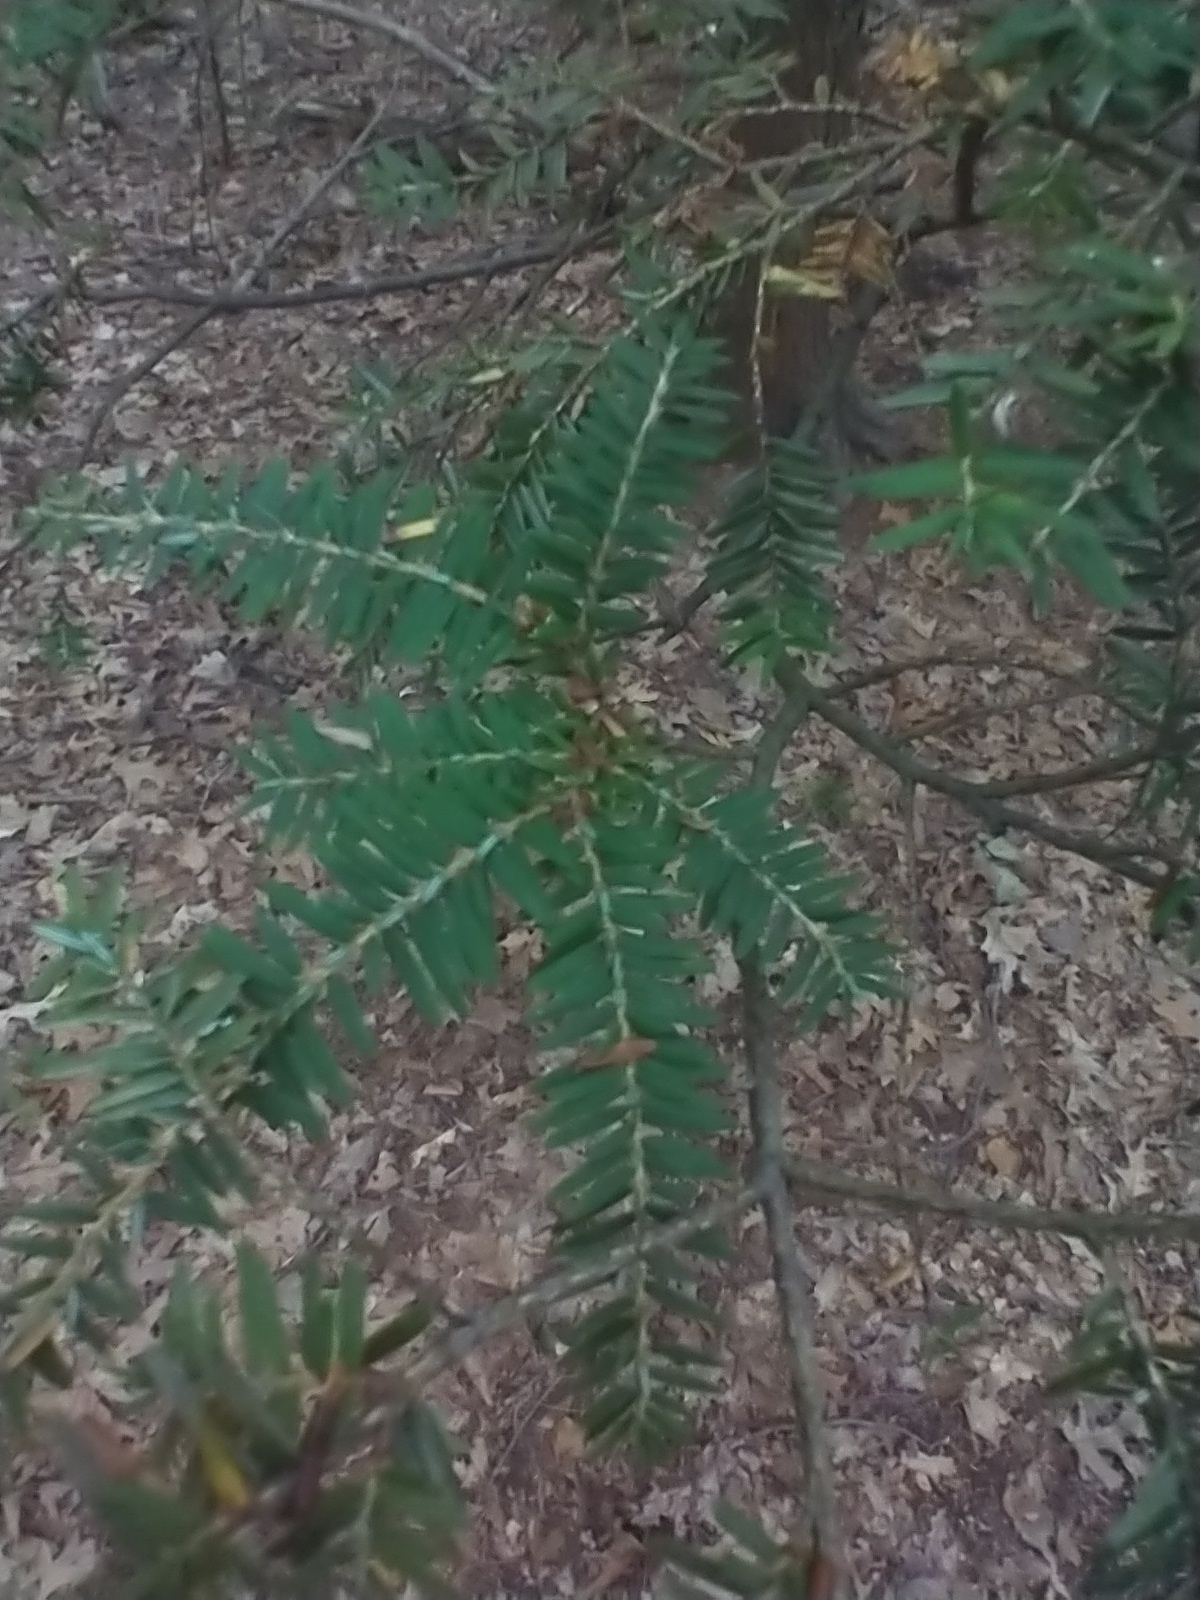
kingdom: Plantae
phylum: Tracheophyta
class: Pinopsida
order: Pinales
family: Pinaceae
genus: Tsuga
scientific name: Tsuga canadensis
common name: Eastern hemlock
